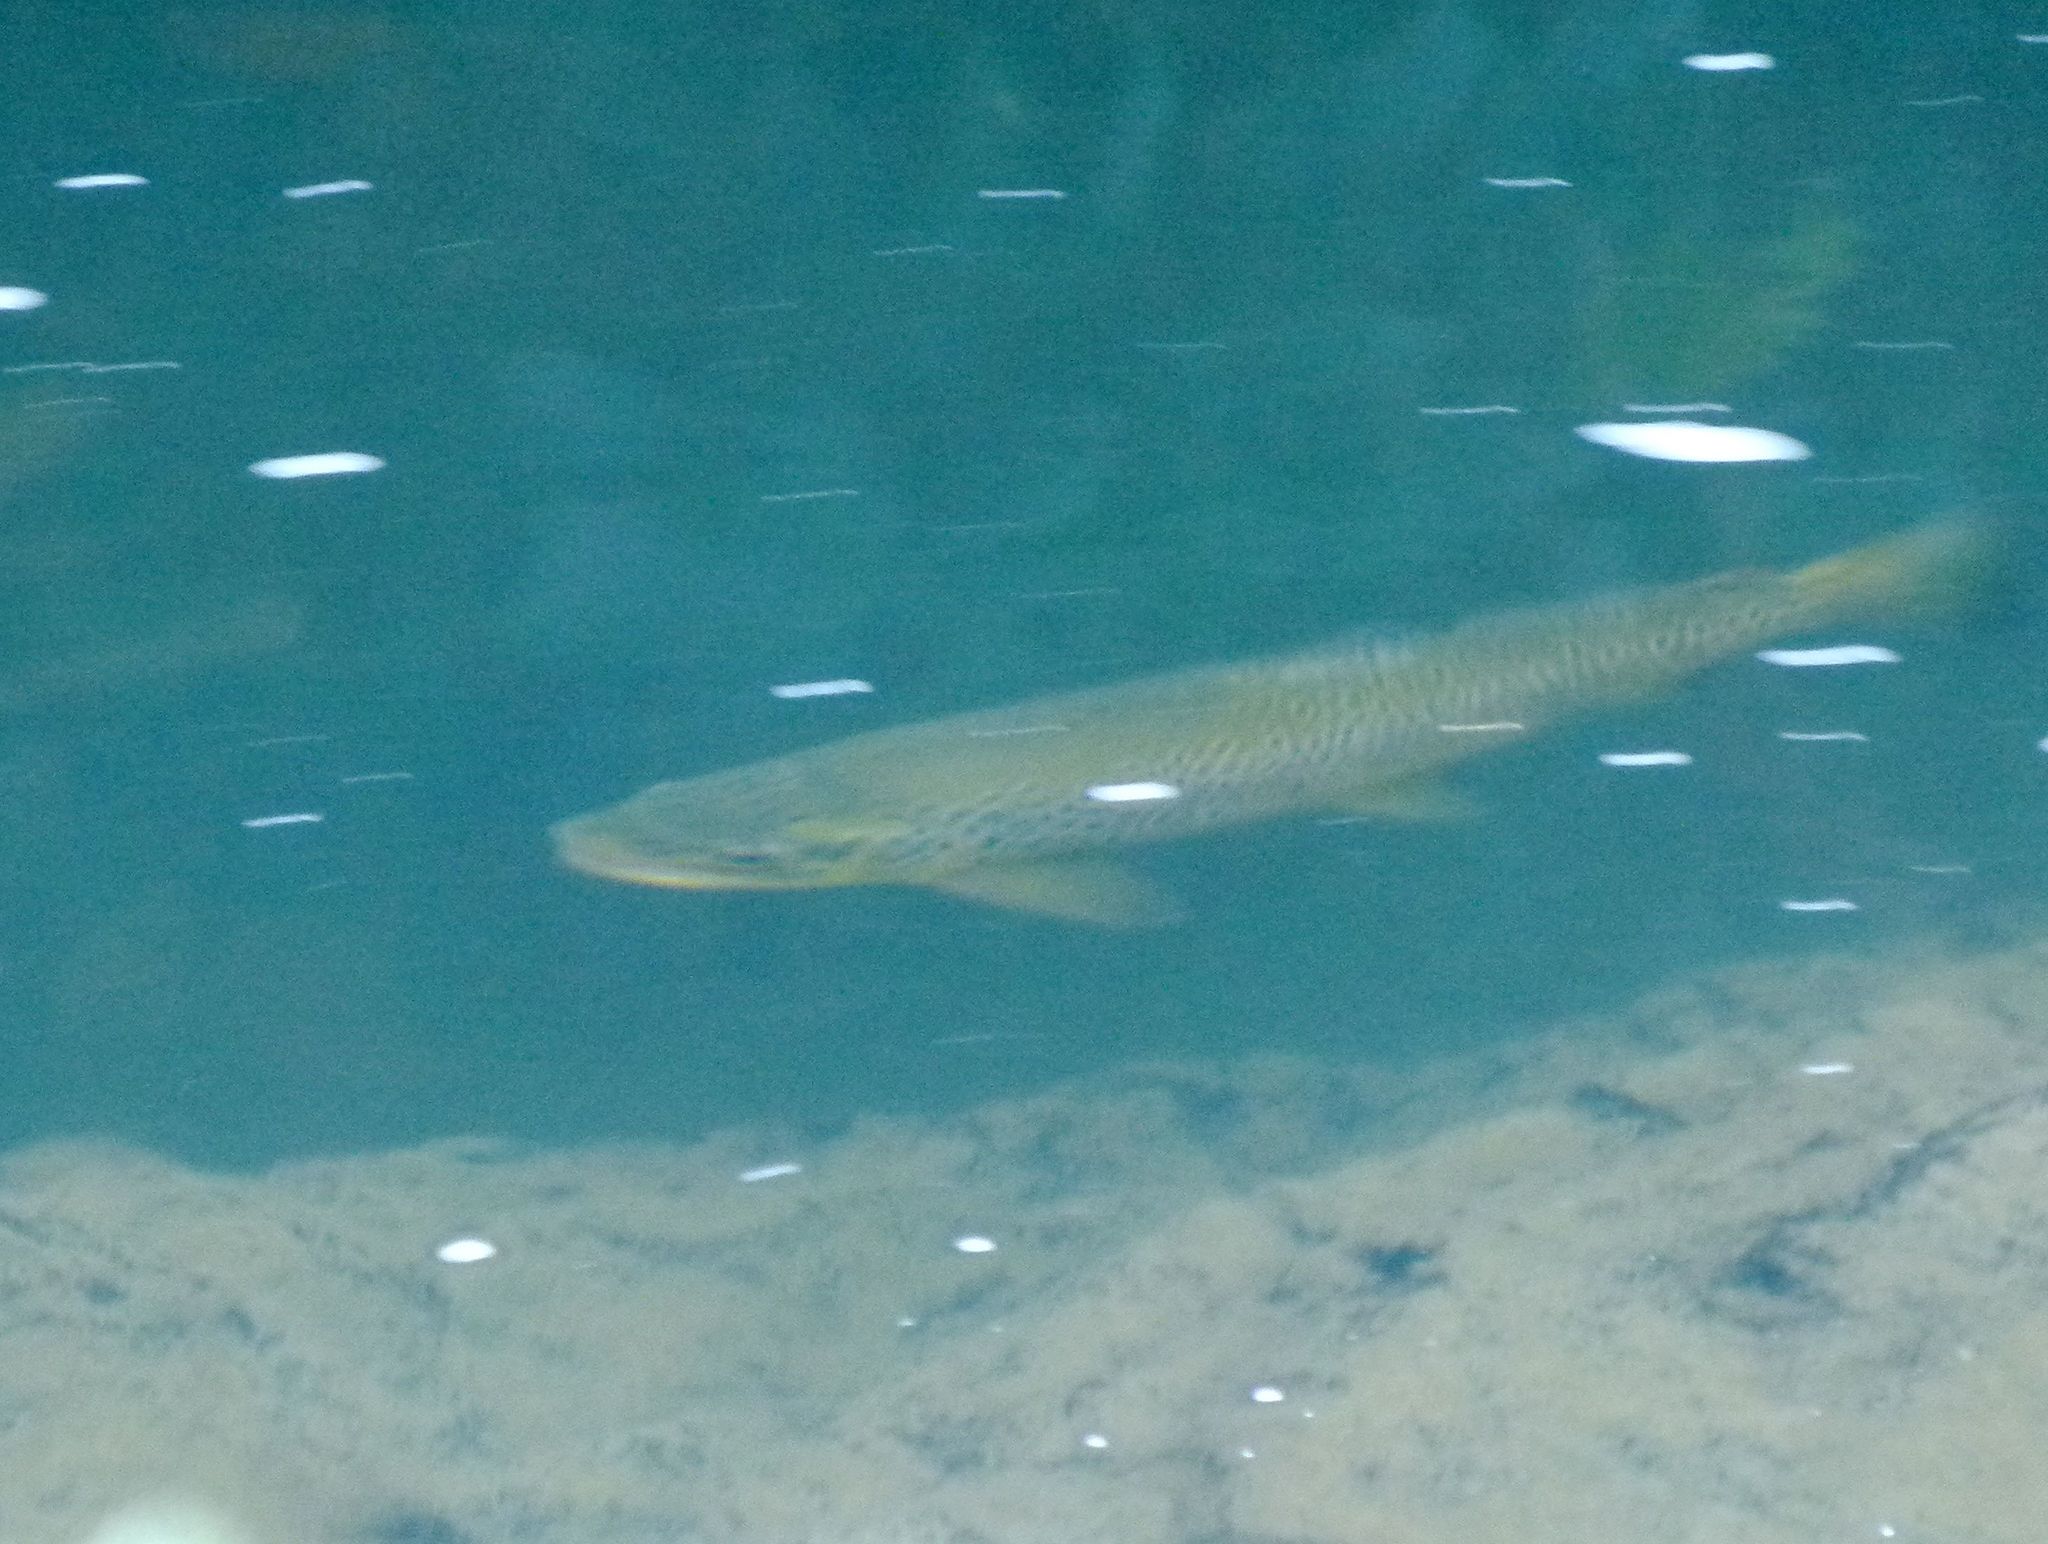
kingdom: Animalia
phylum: Chordata
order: Salmoniformes
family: Salmonidae
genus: Salmo
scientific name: Salmo trutta
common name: Brown trout
